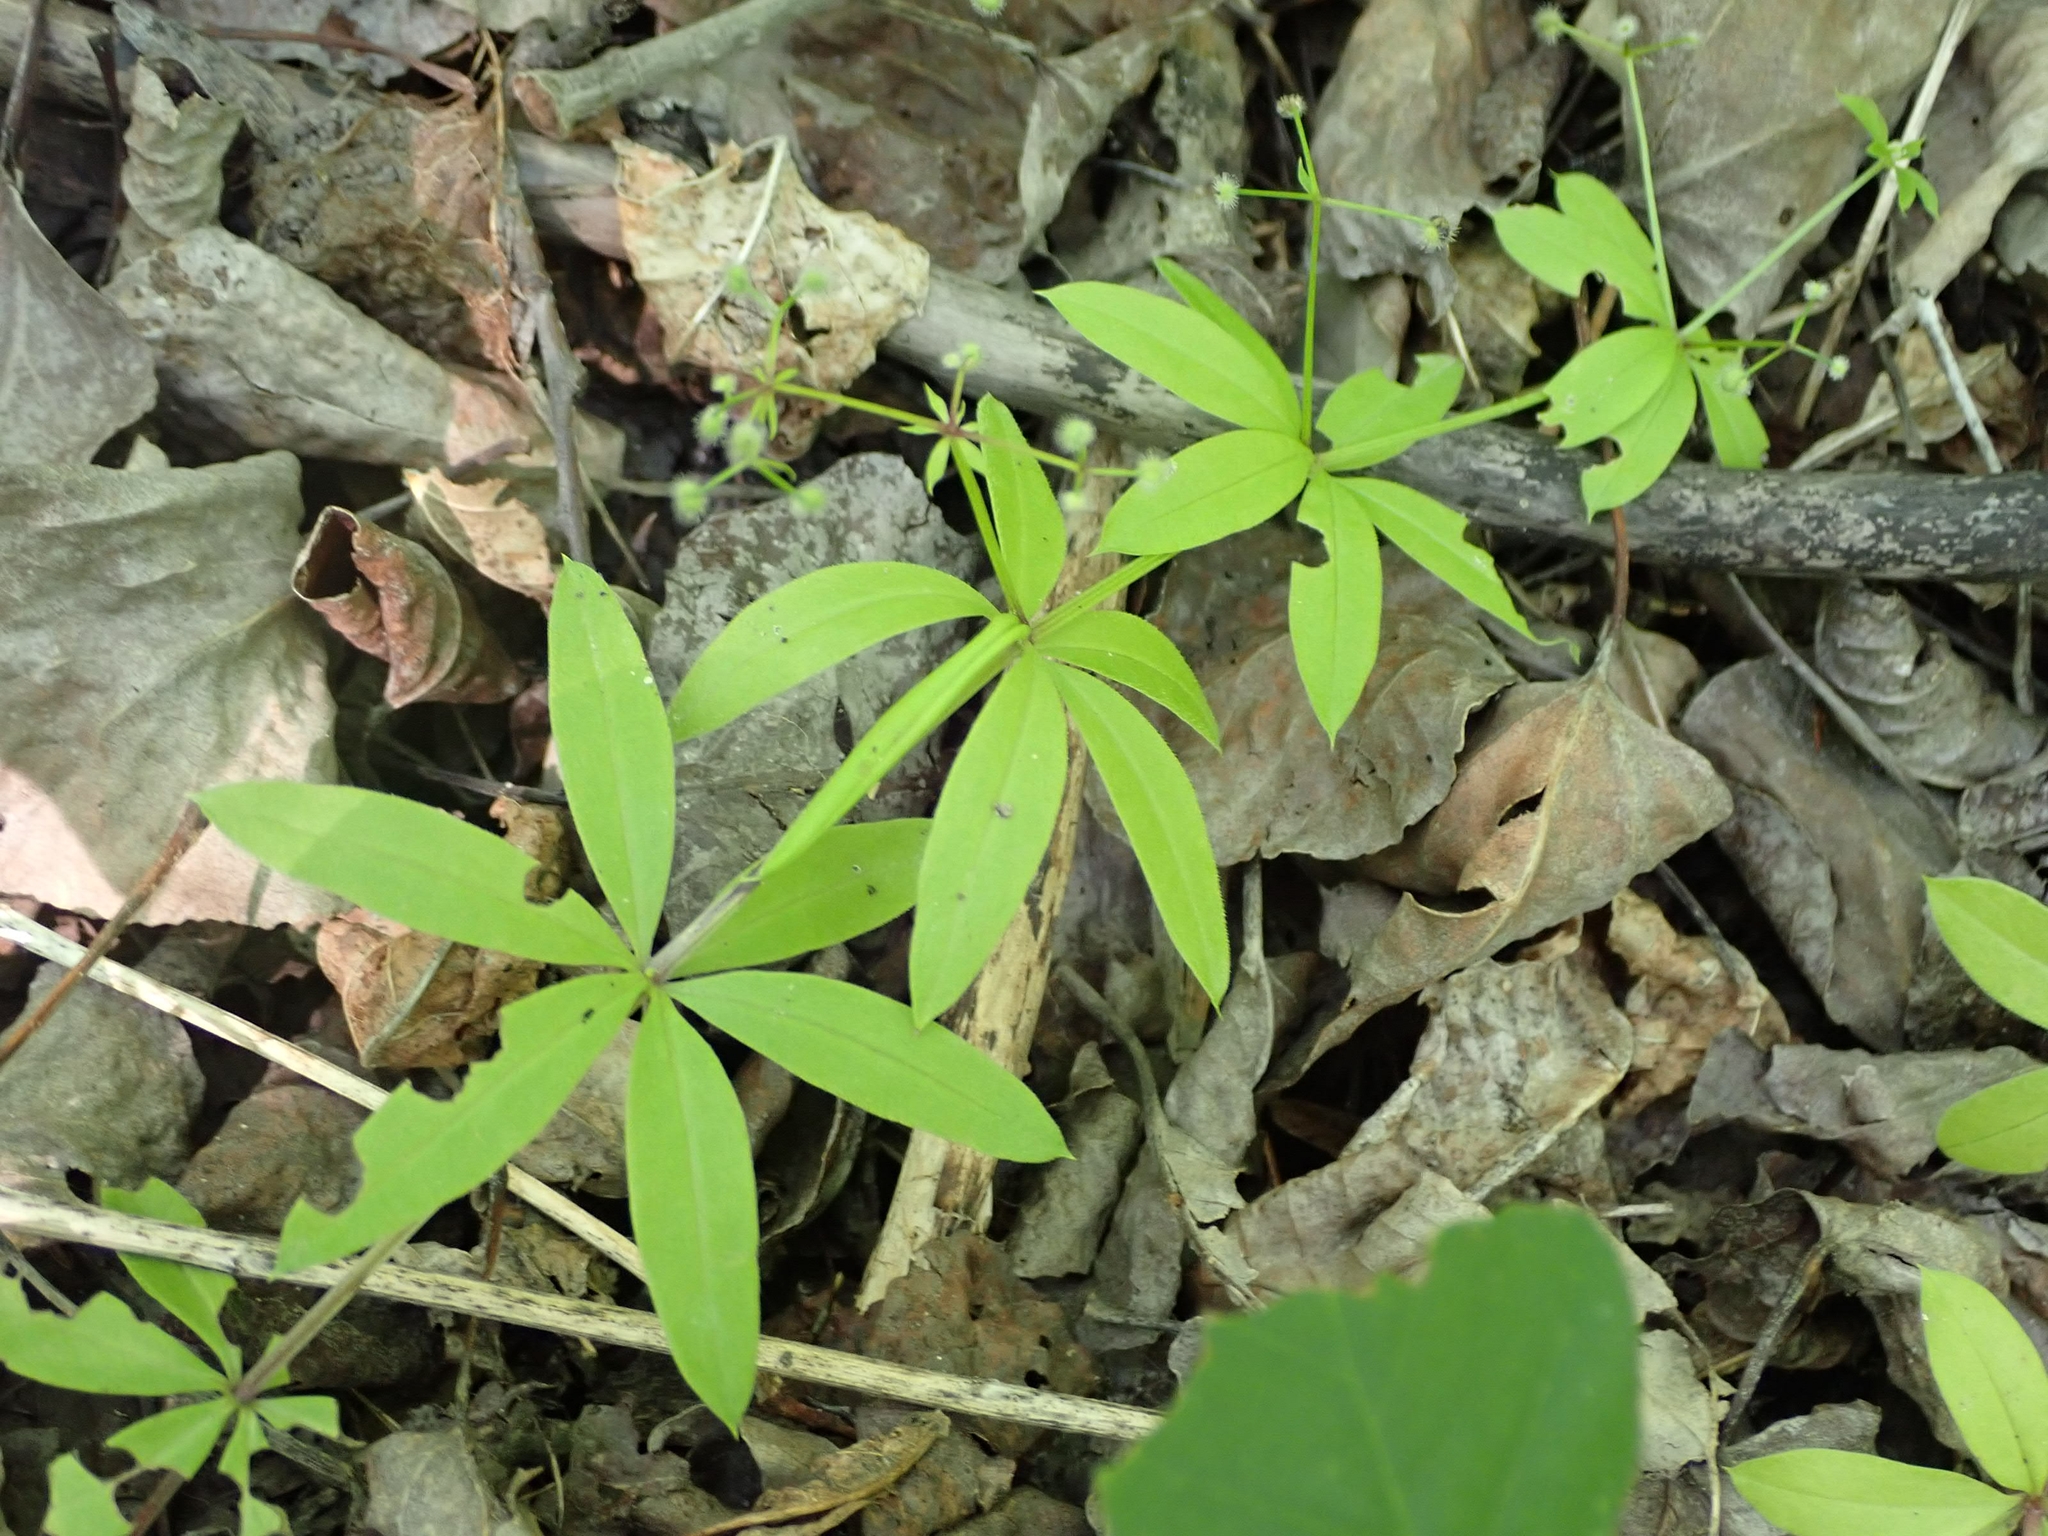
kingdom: Plantae
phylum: Tracheophyta
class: Magnoliopsida
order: Gentianales
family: Rubiaceae
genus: Galium
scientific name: Galium triflorum
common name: Fragrant bedstraw
